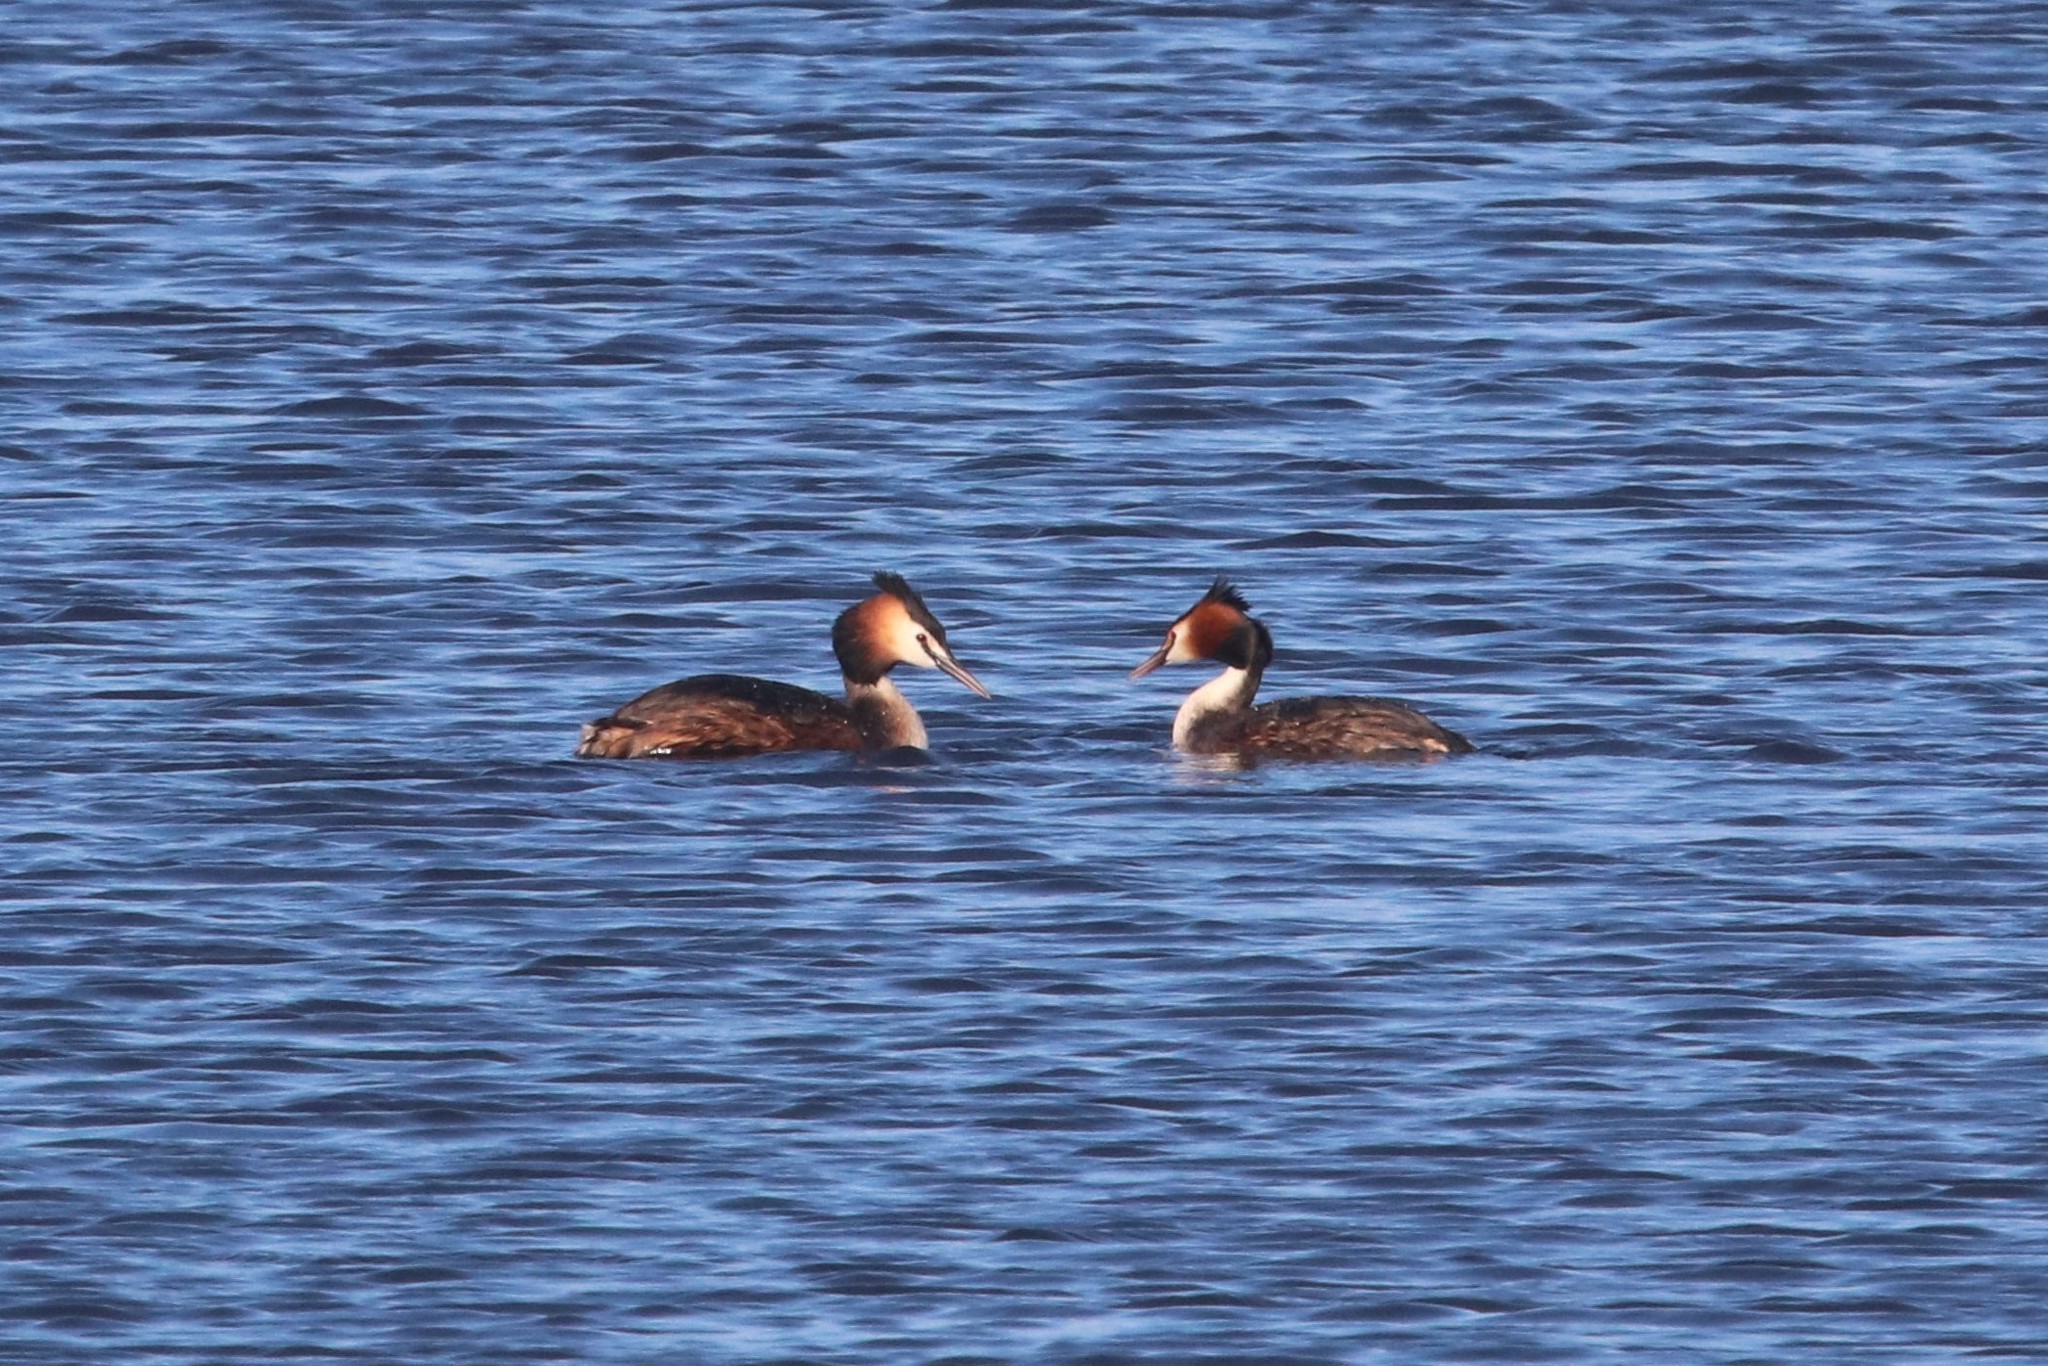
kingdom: Animalia
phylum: Chordata
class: Aves
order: Podicipediformes
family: Podicipedidae
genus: Podiceps
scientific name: Podiceps cristatus
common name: Great crested grebe
